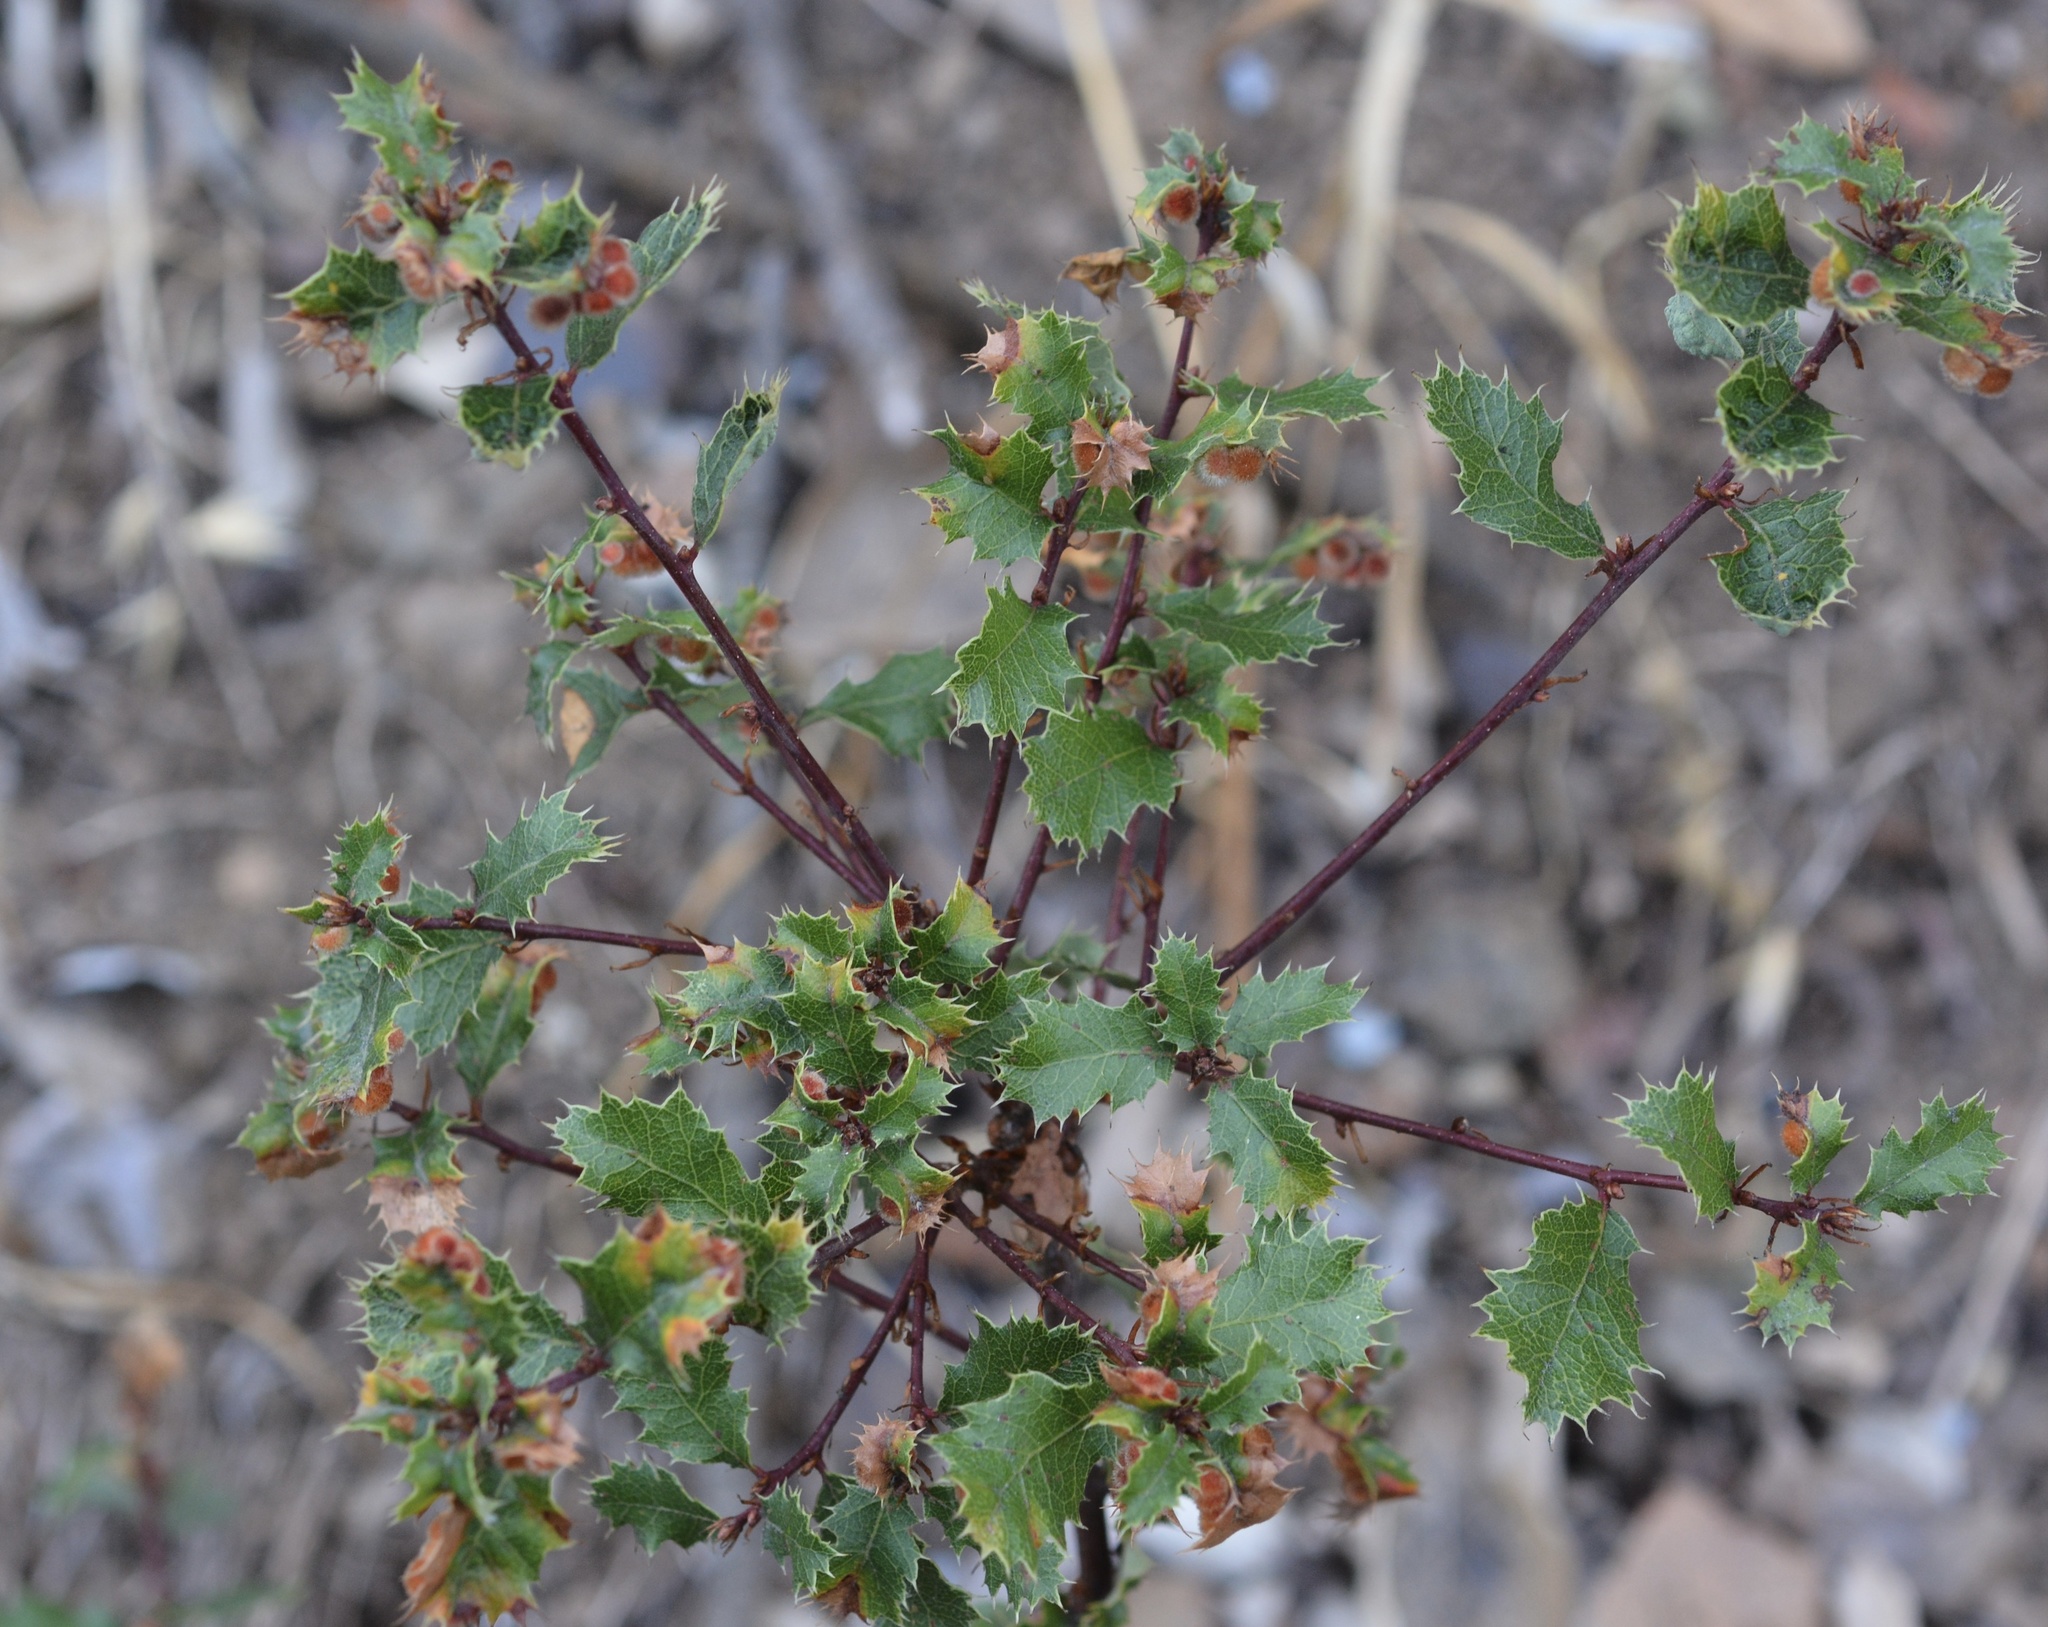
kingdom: Animalia
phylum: Arthropoda
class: Insecta
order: Hymenoptera
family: Cynipidae
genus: Atrusca
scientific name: Atrusca
